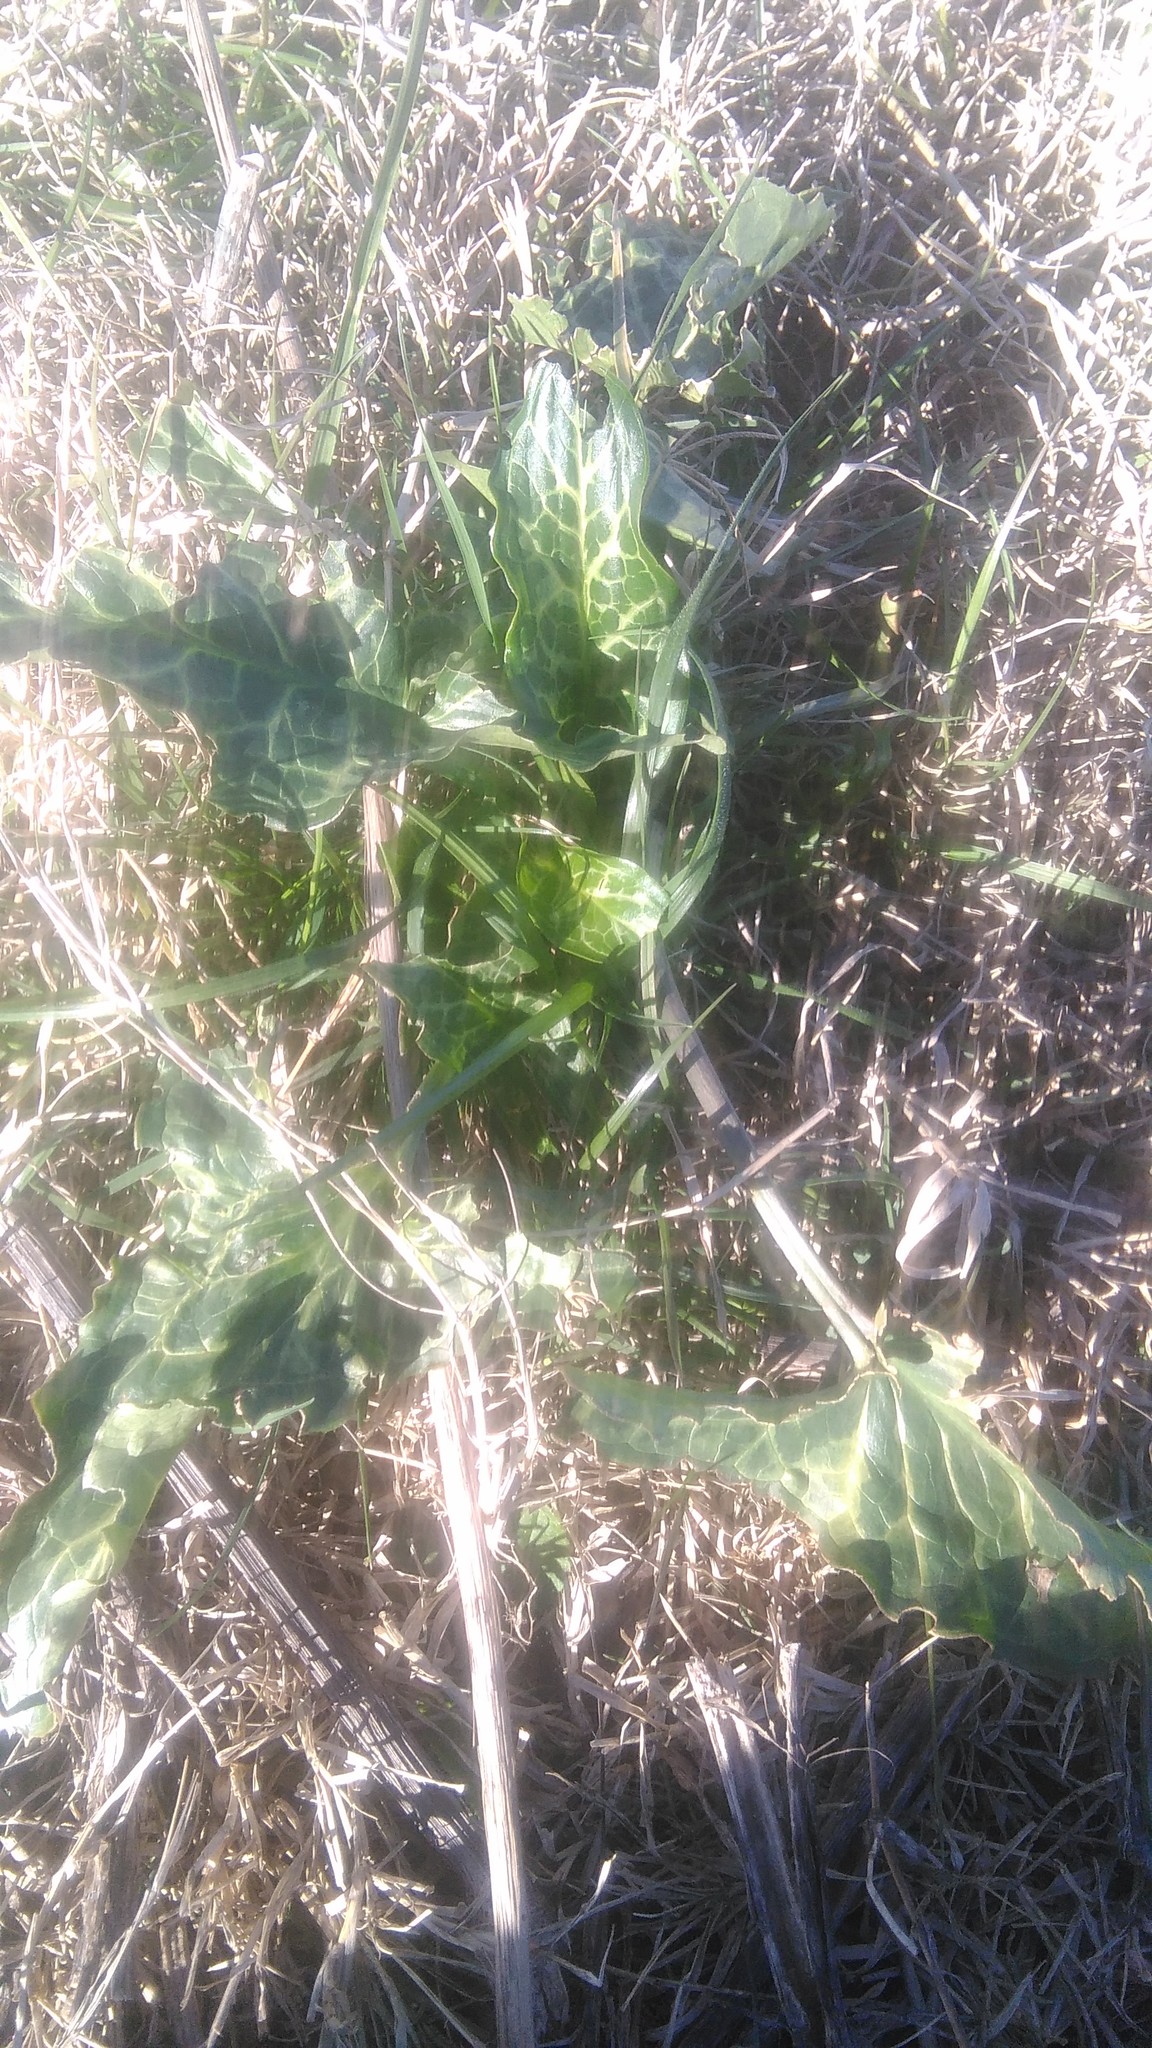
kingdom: Plantae
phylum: Tracheophyta
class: Liliopsida
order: Alismatales
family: Araceae
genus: Arum
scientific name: Arum italicum
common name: Italian lords-and-ladies
